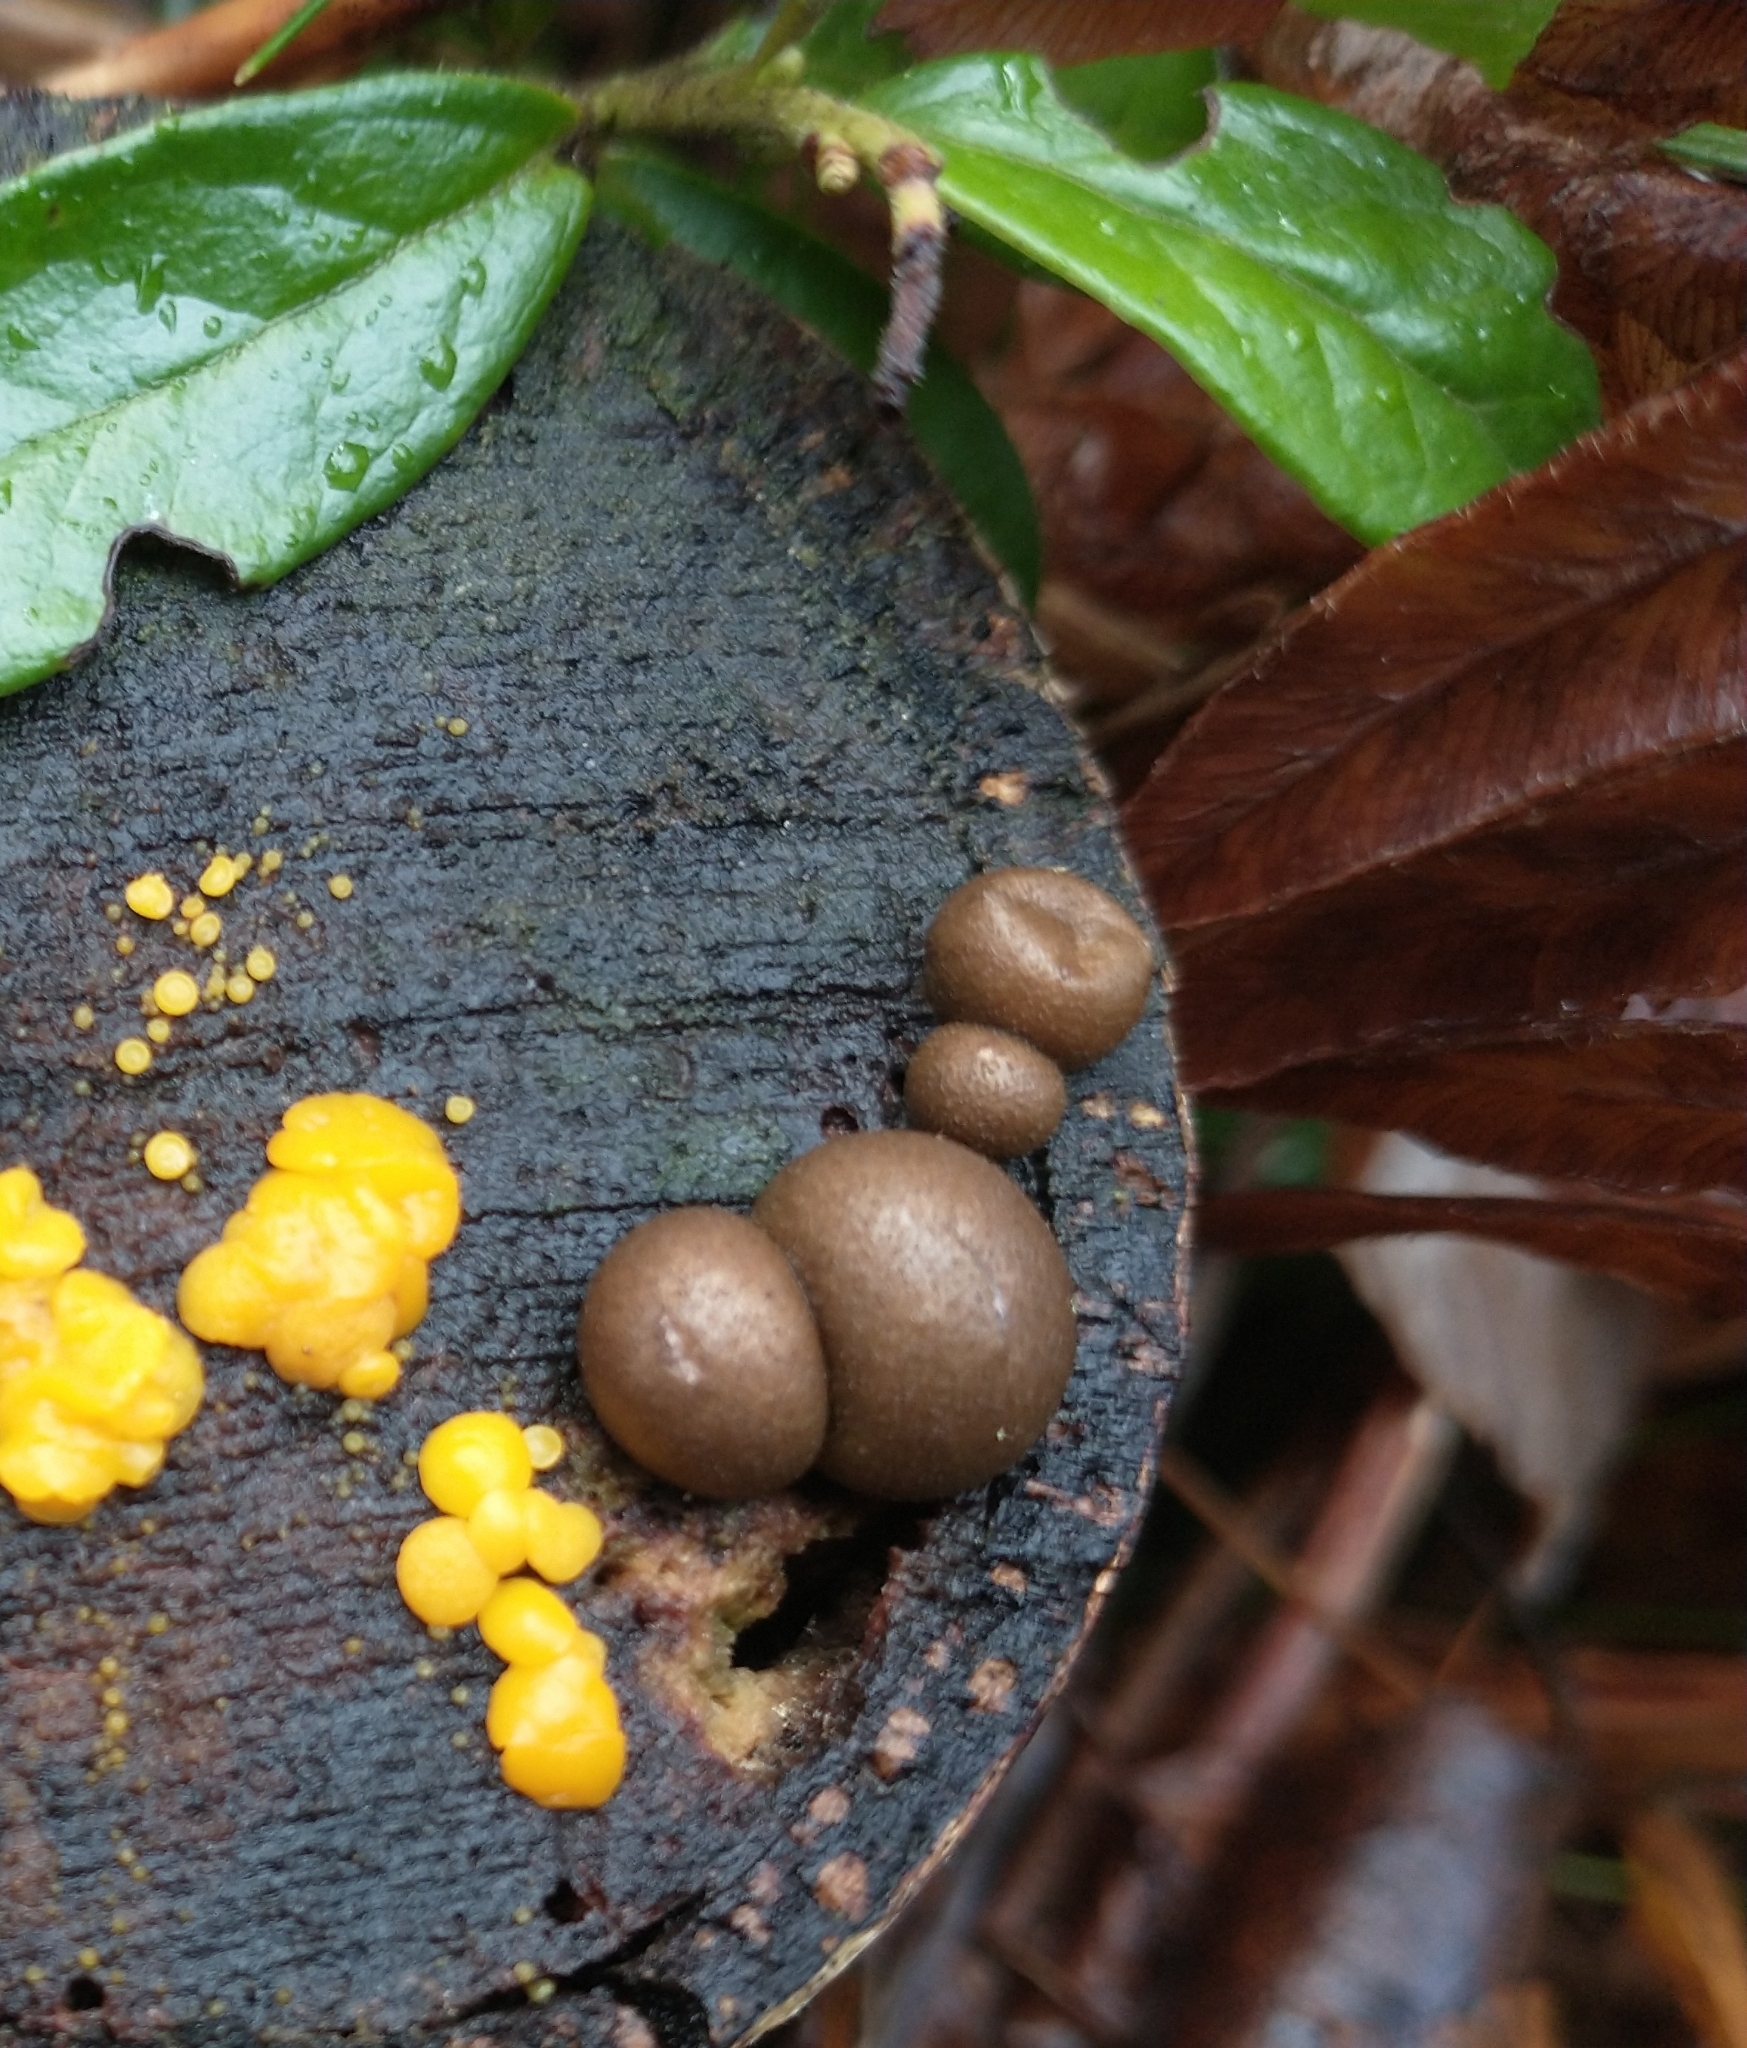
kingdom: Protozoa
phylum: Mycetozoa
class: Myxomycetes
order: Cribrariales
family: Tubiferaceae
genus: Lycogala
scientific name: Lycogala epidendrum
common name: Wolf's milk
